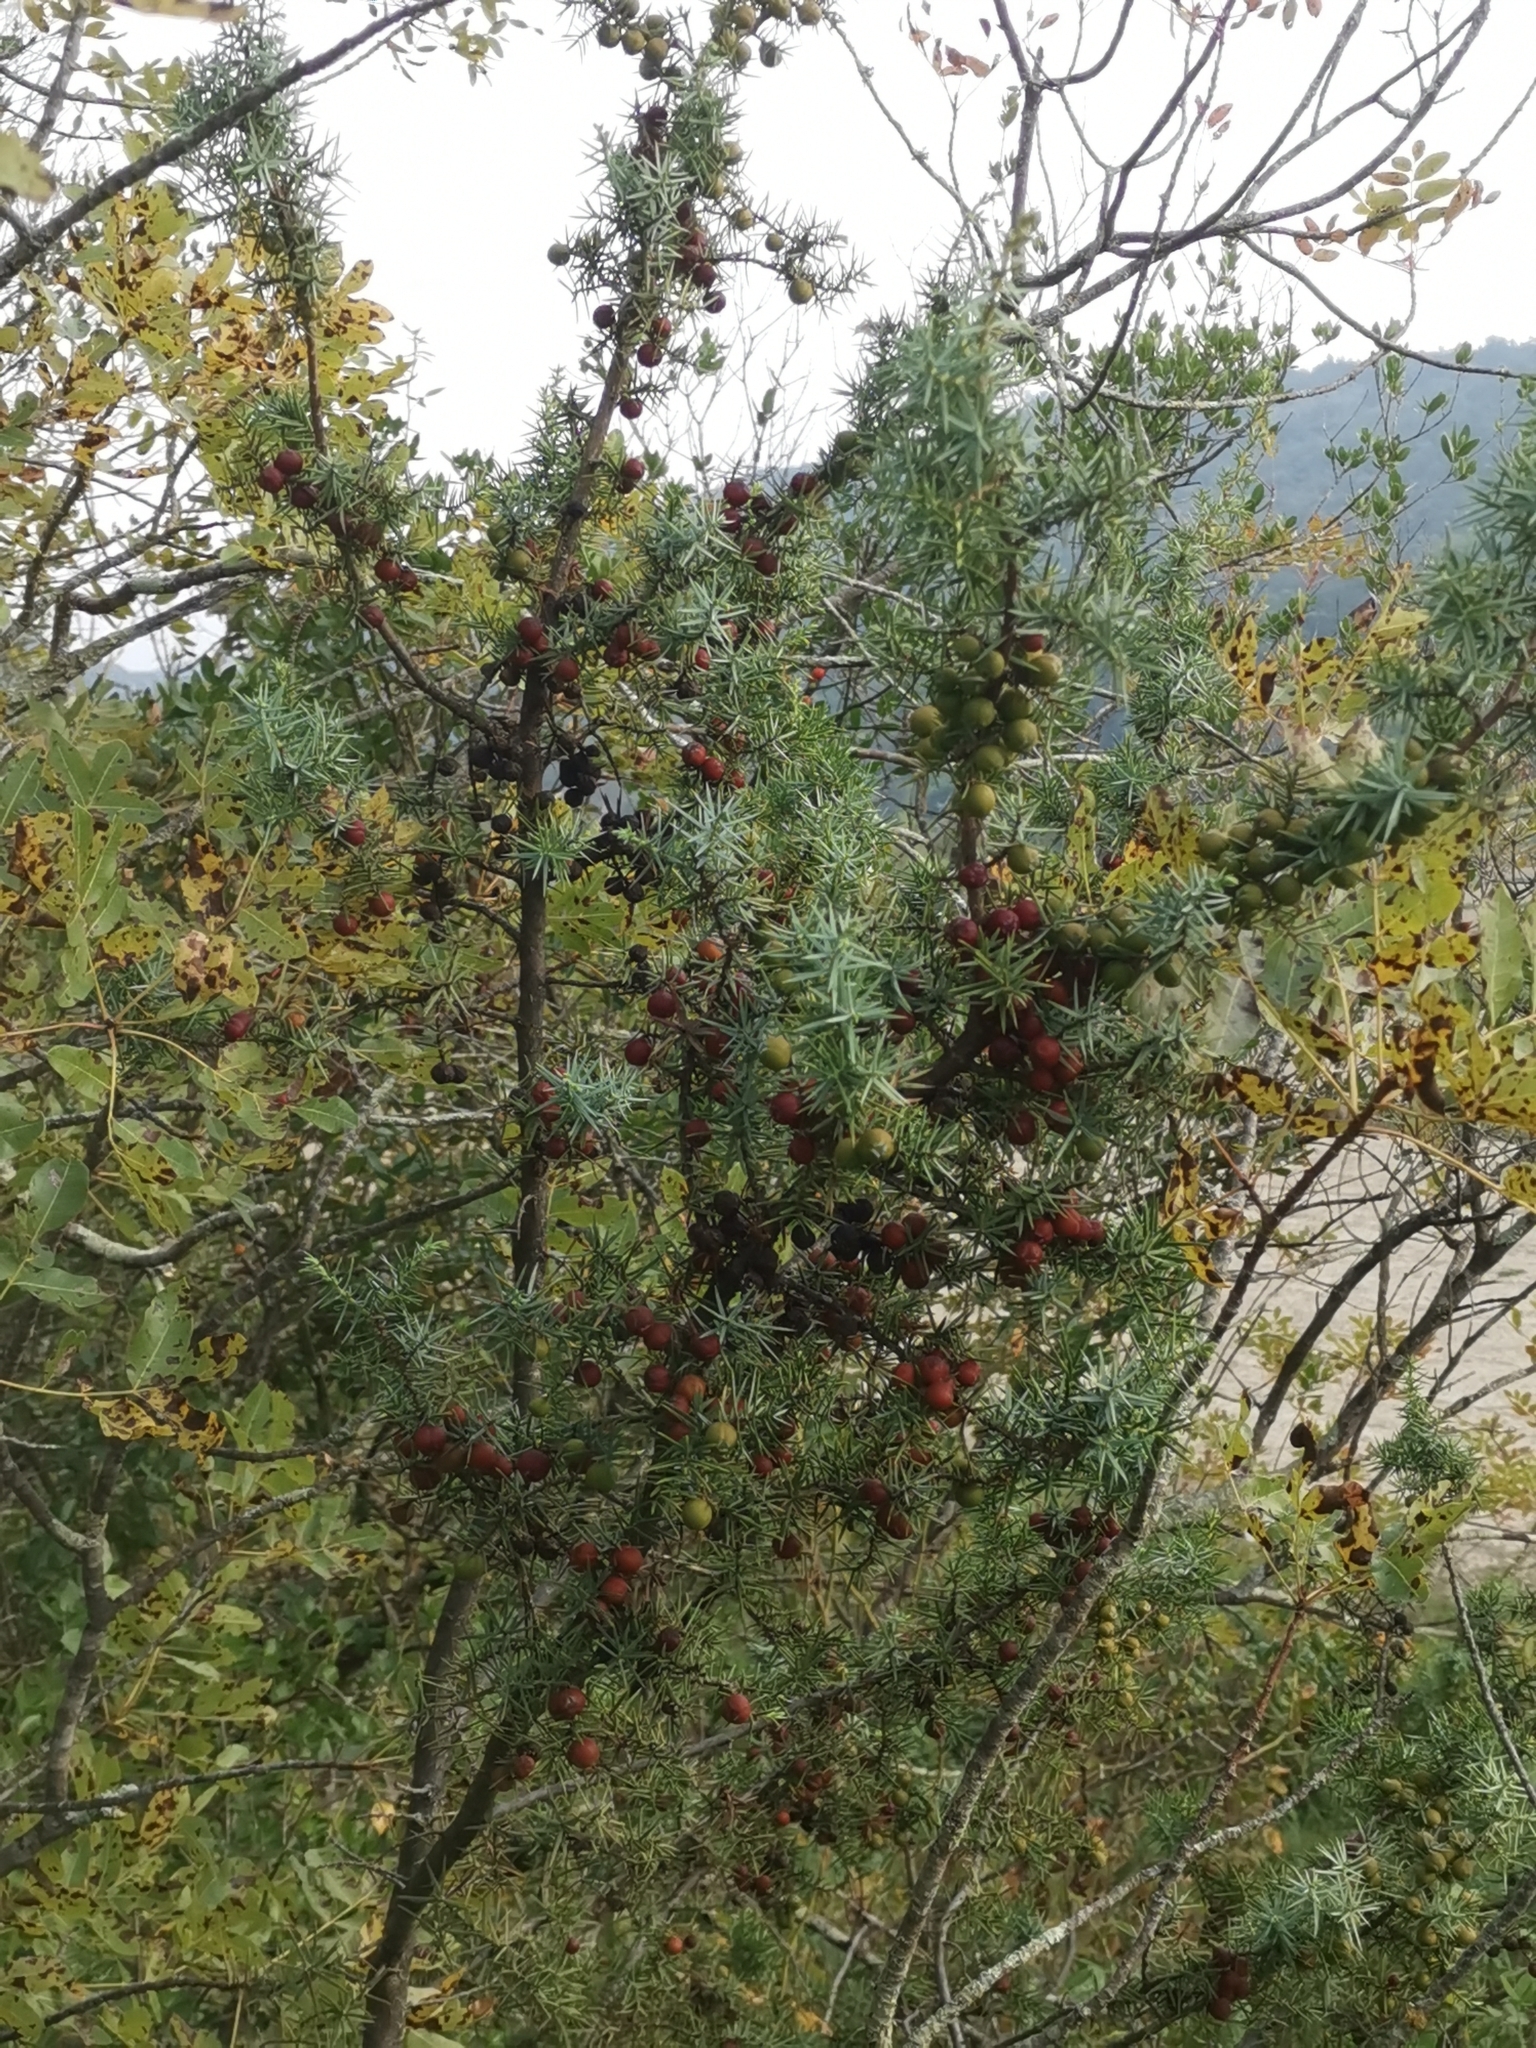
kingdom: Plantae
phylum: Tracheophyta
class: Pinopsida
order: Pinales
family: Cupressaceae
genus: Juniperus
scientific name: Juniperus oxycedrus
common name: Prickly juniper
